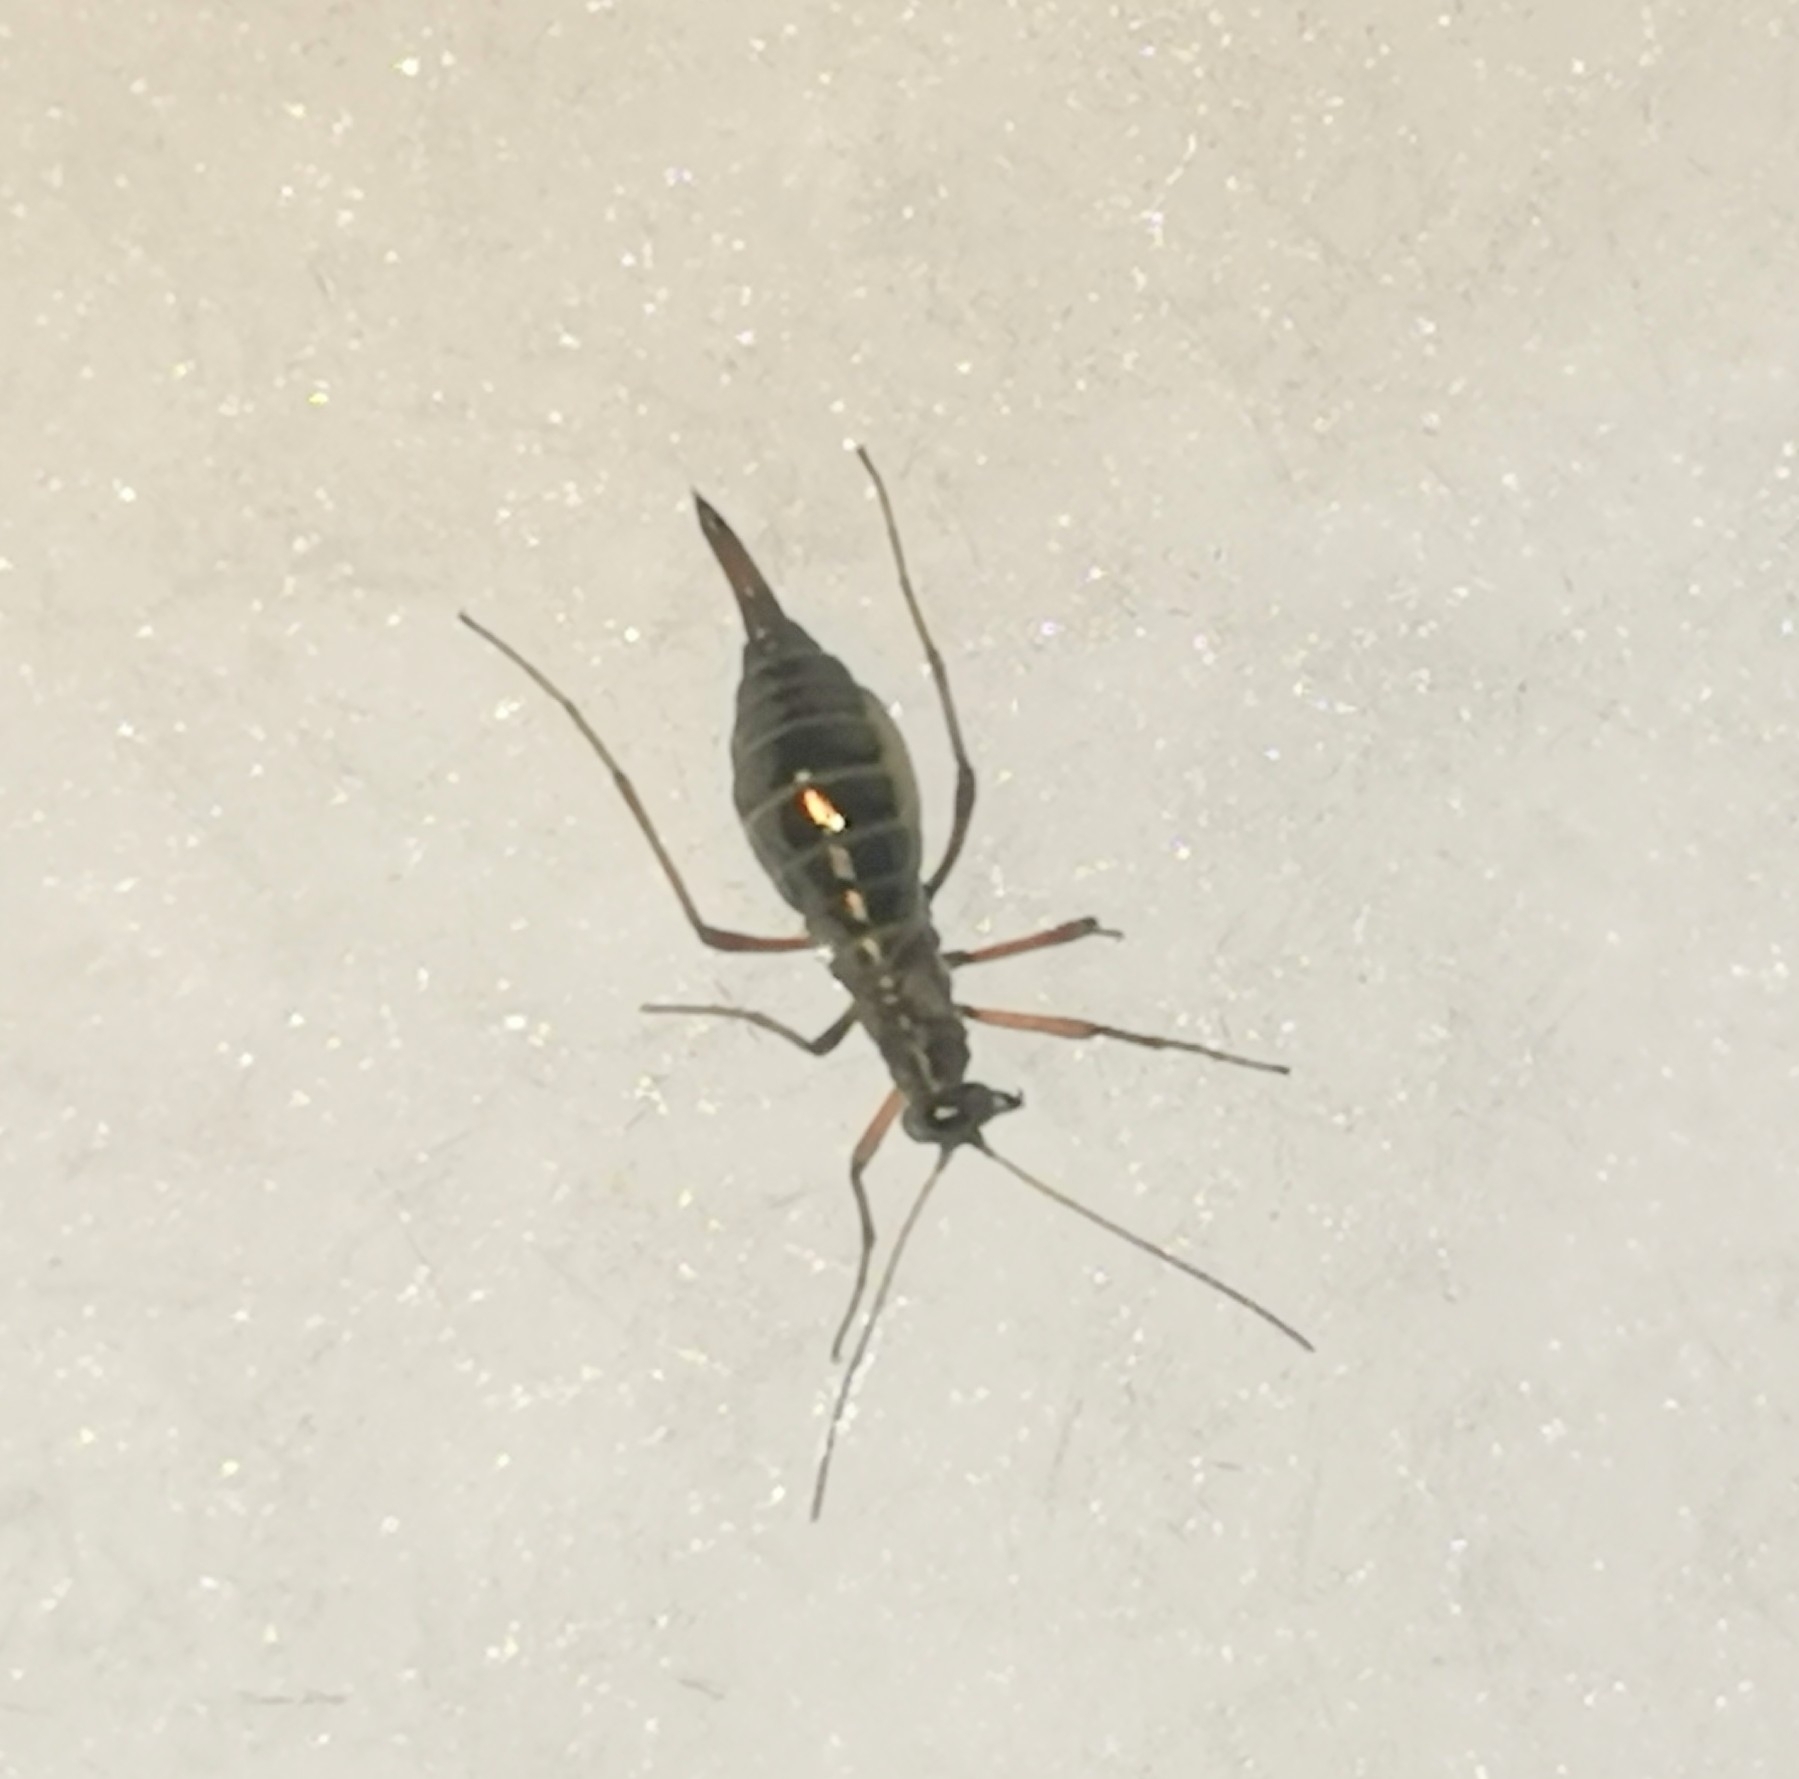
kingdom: Animalia
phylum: Arthropoda
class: Insecta
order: Mecoptera
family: Boreidae
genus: Boreus
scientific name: Boreus westwoodi
